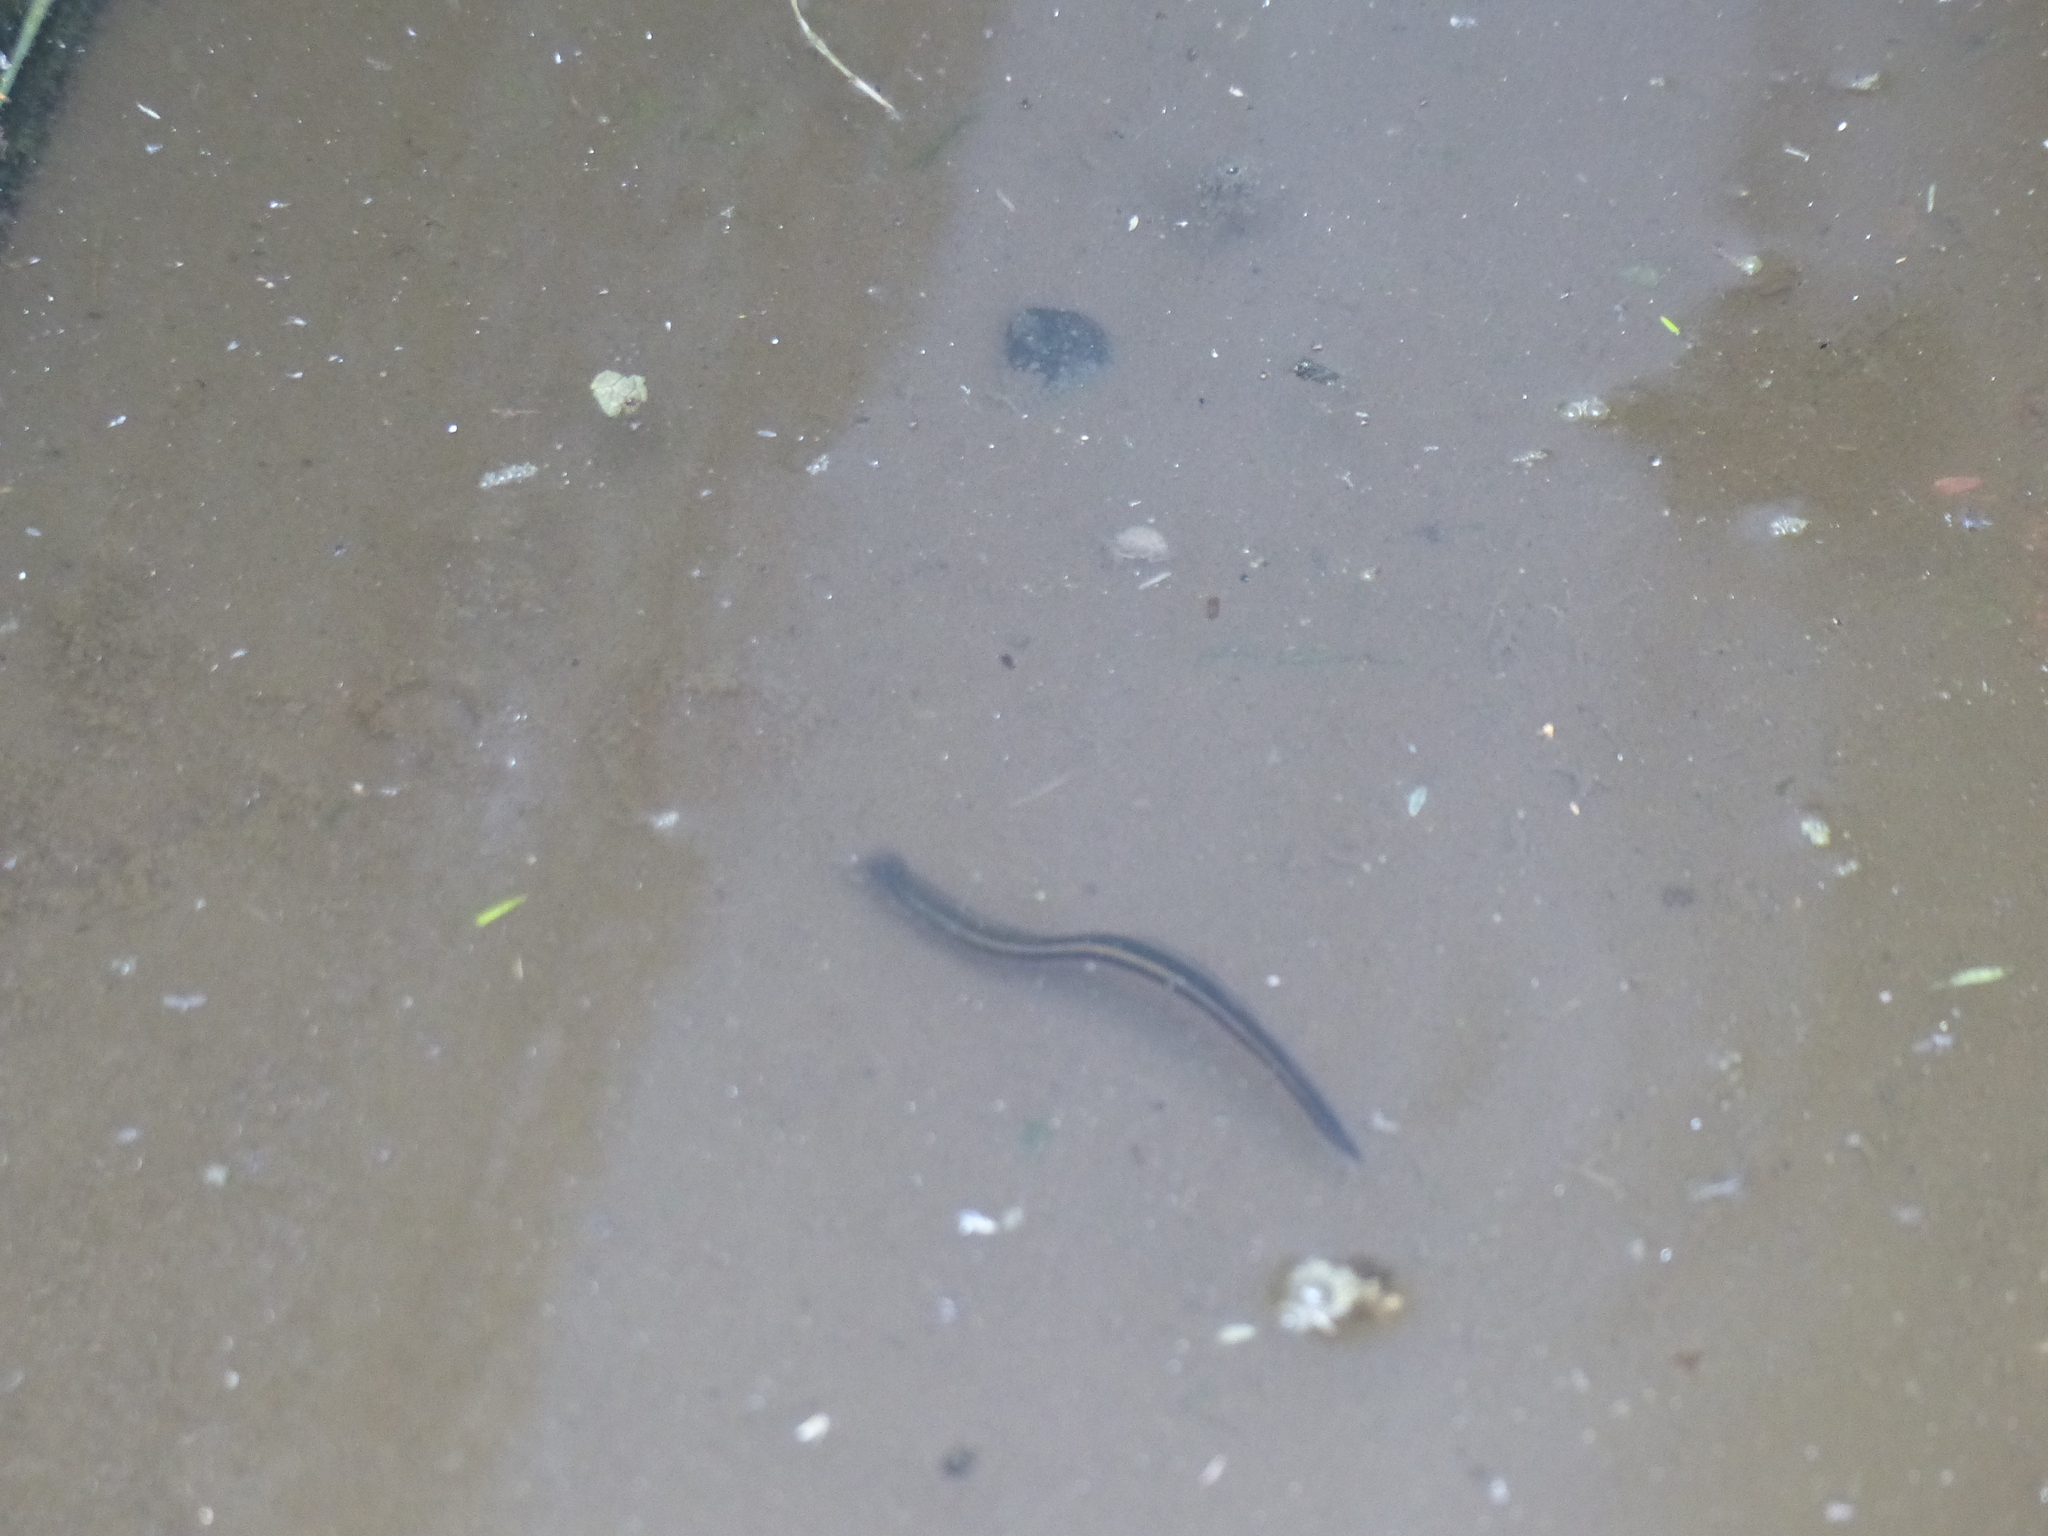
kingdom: Animalia
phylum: Annelida
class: Clitellata
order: Arhynchobdellida
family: Hirudinidae
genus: Richardsonianus
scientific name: Richardsonianus mauianus
